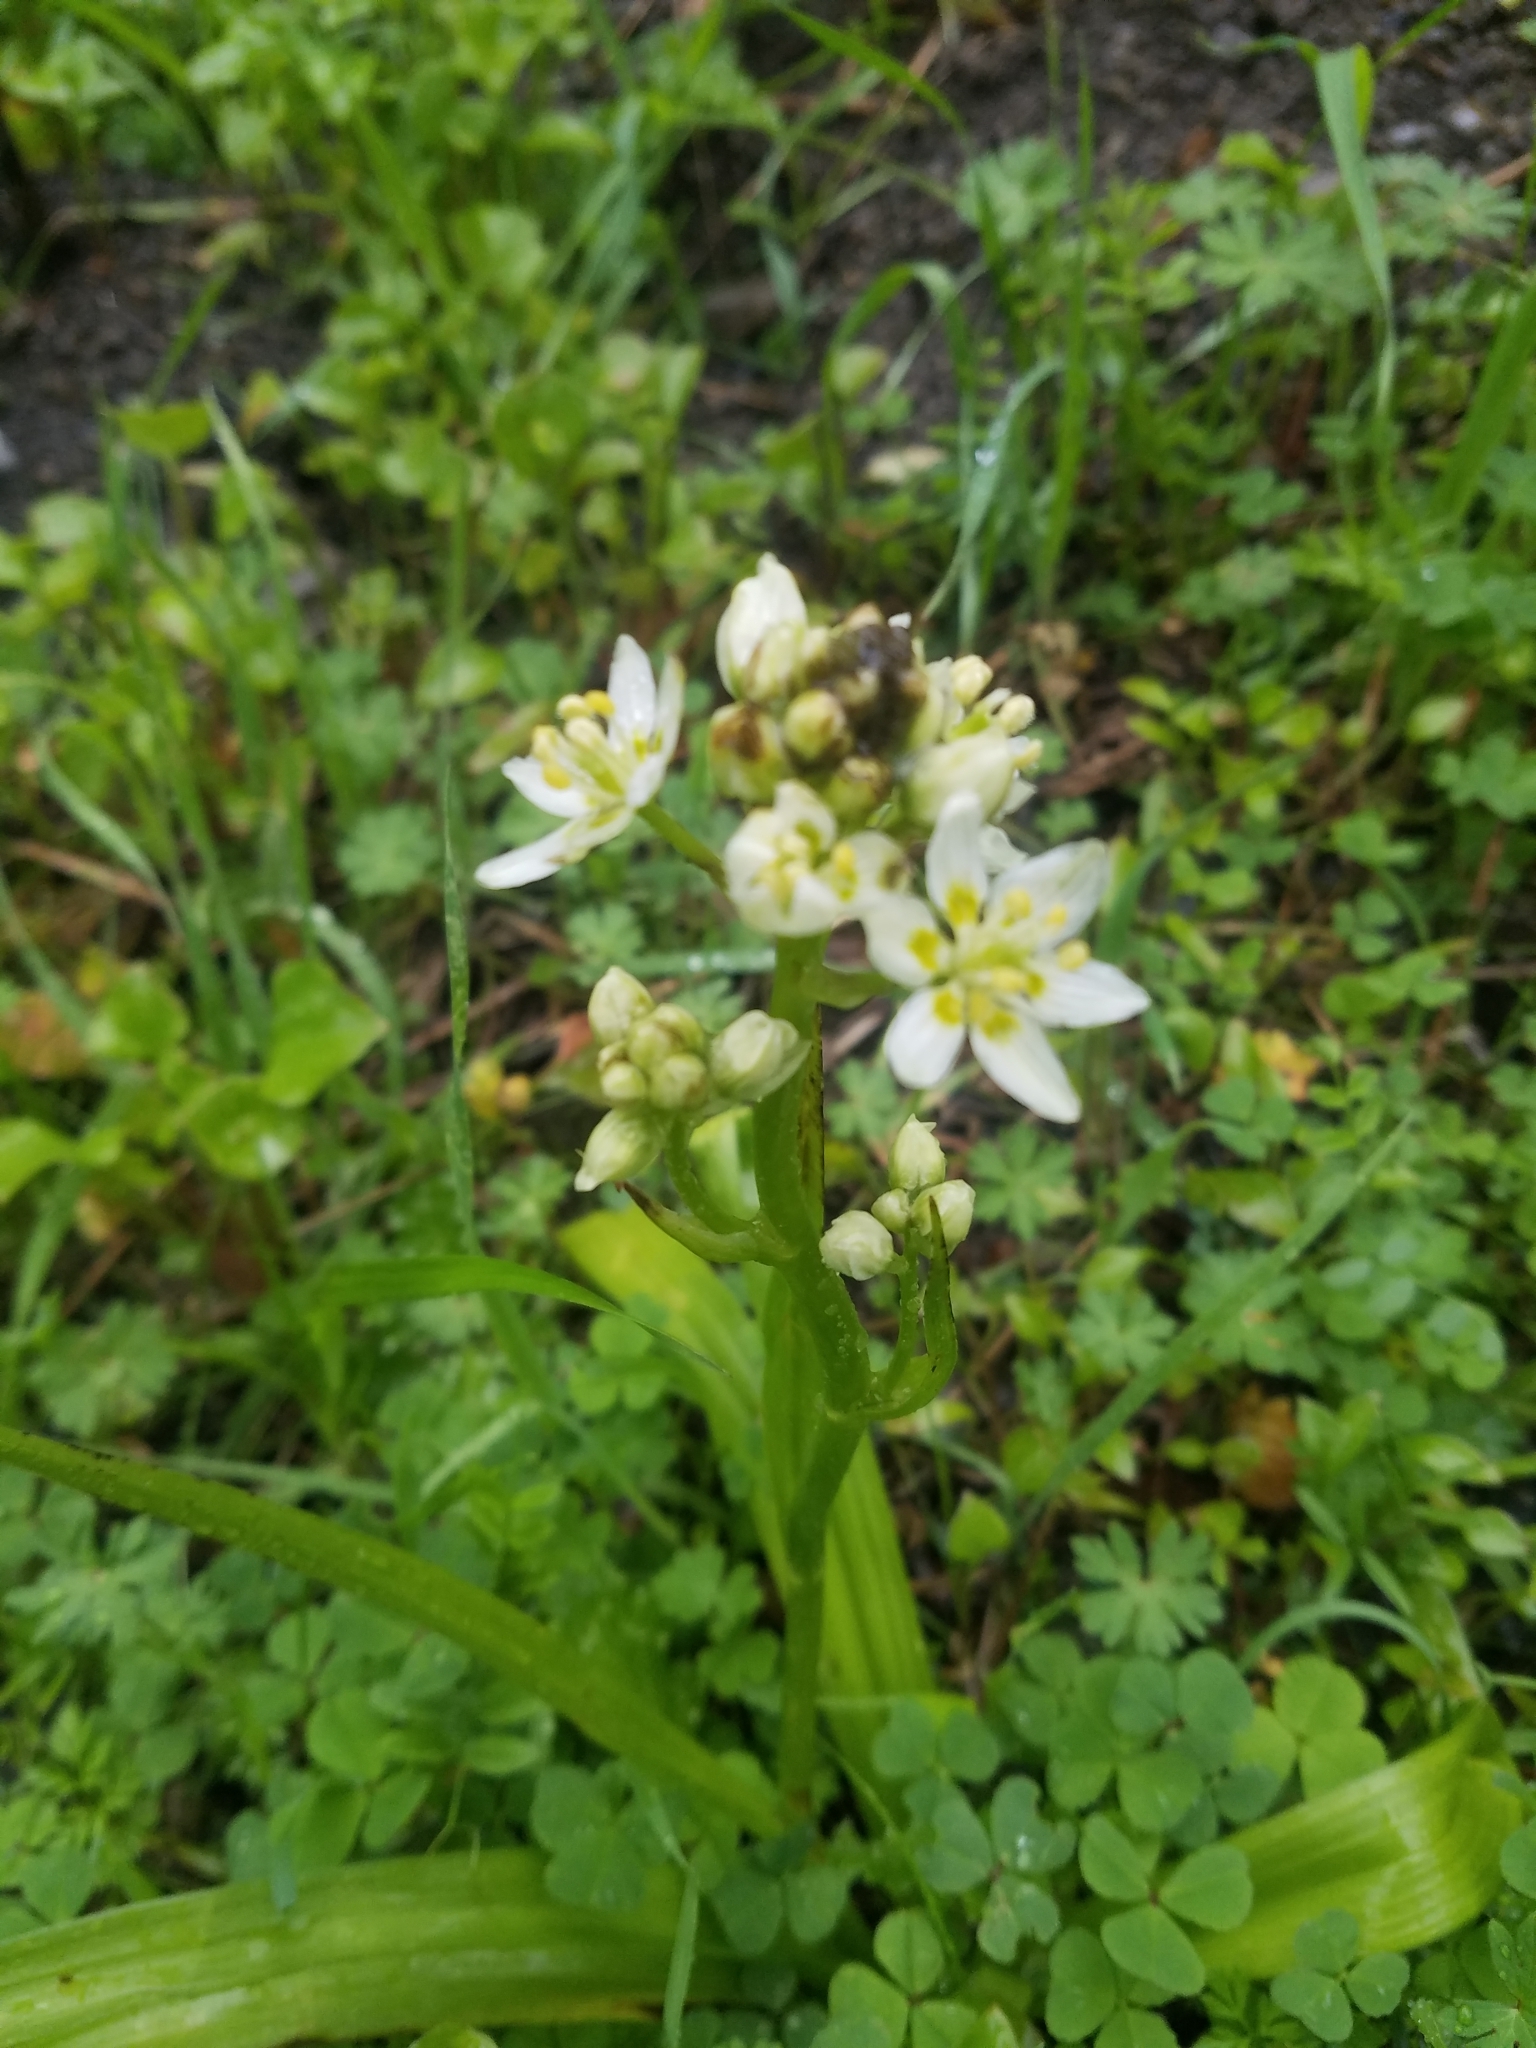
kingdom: Plantae
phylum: Tracheophyta
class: Liliopsida
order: Liliales
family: Melanthiaceae
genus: Toxicoscordion
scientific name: Toxicoscordion fremontii
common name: Fremont's death camas
